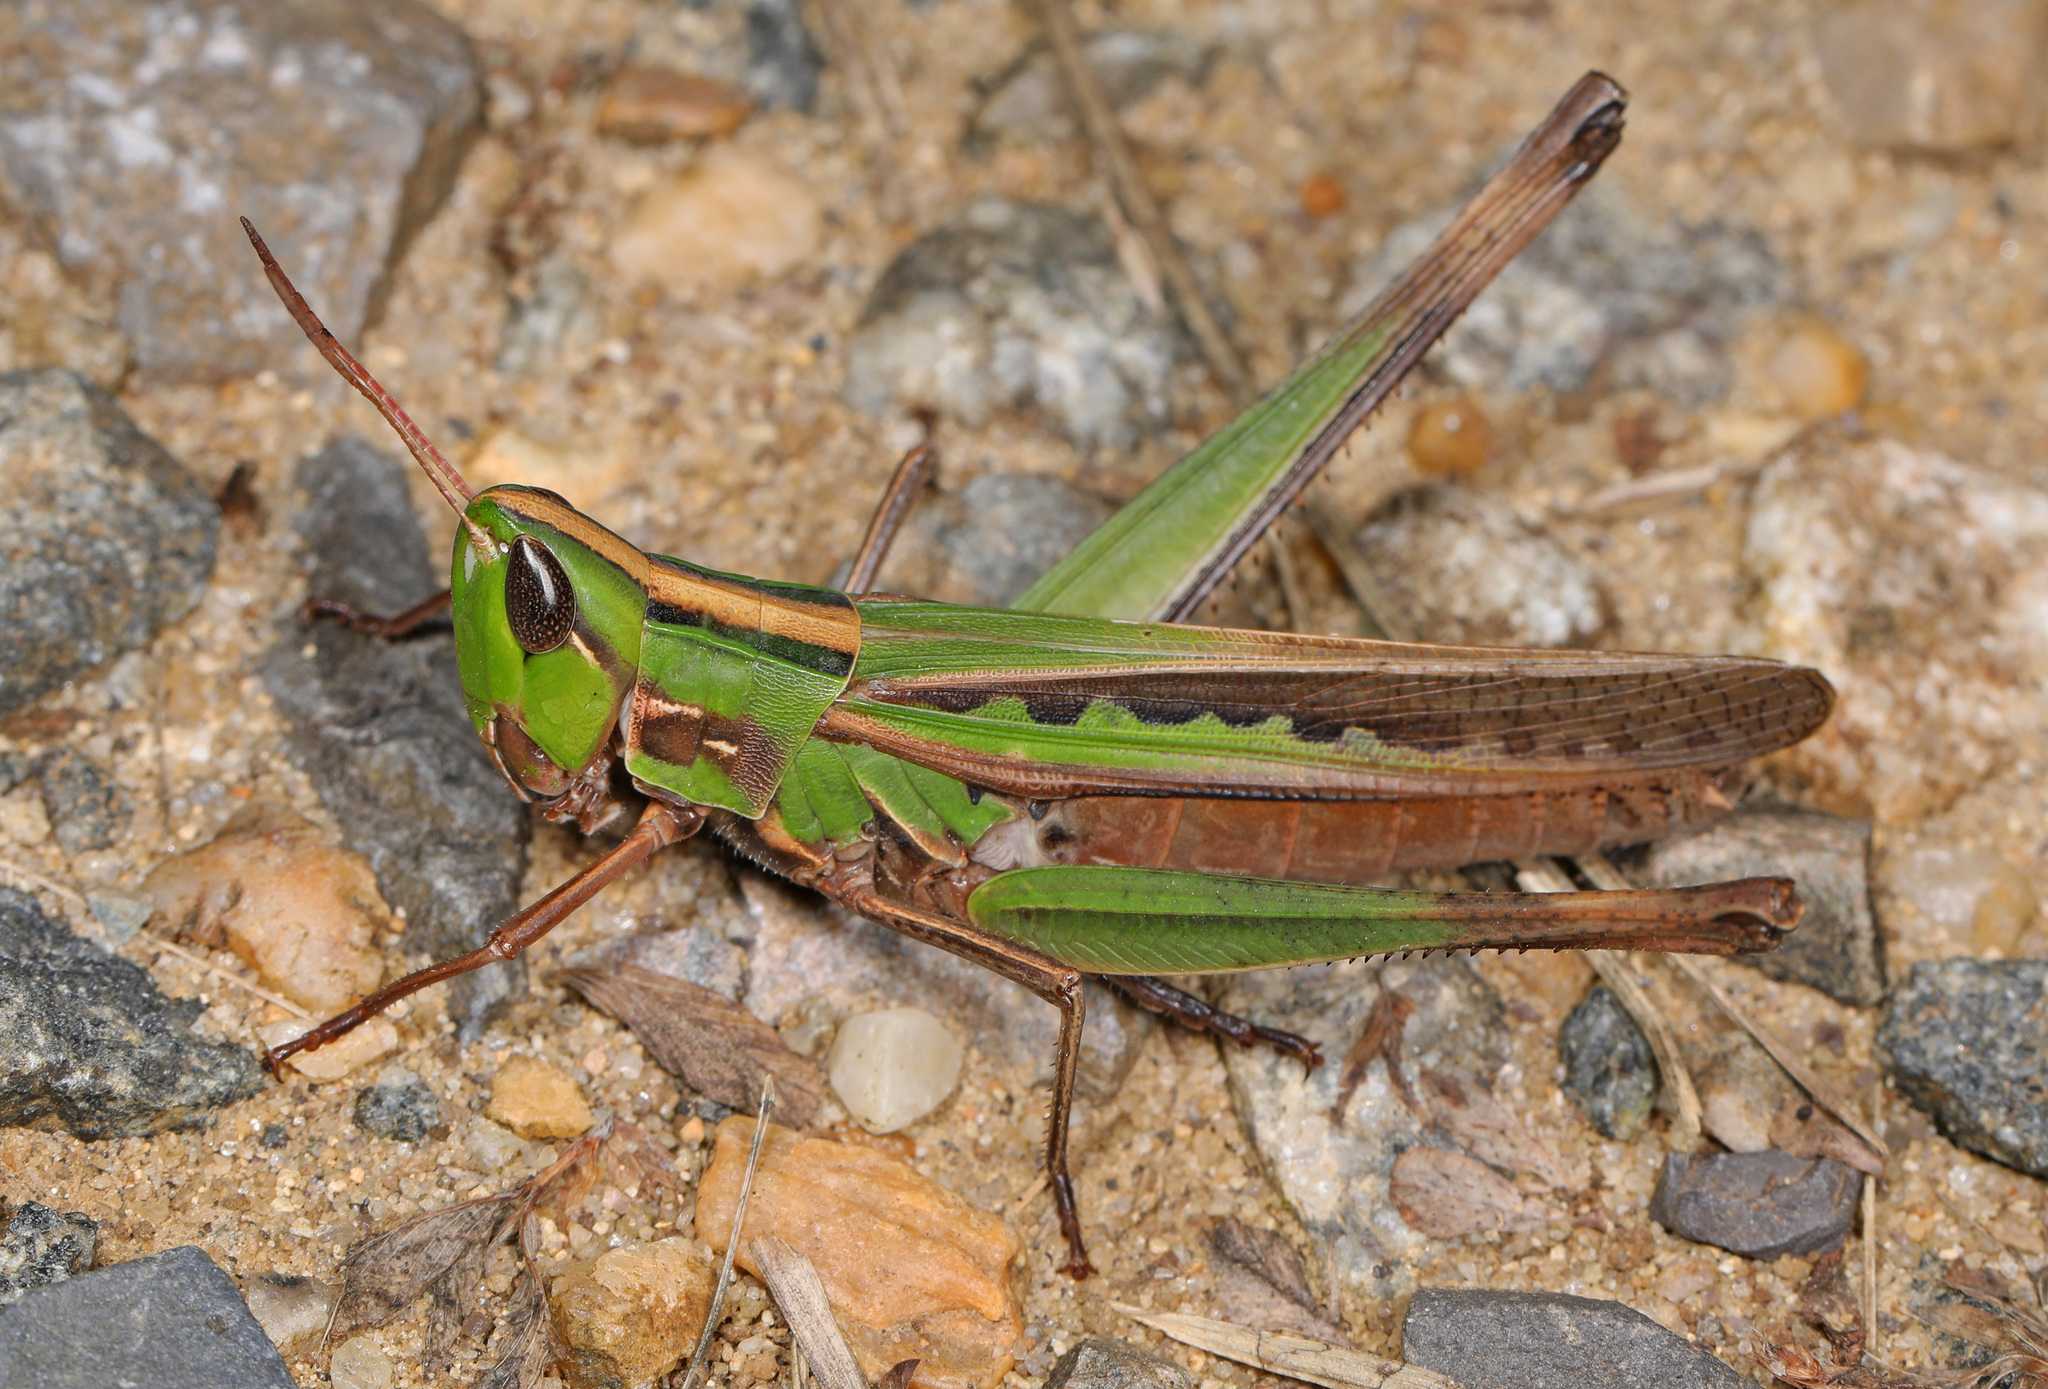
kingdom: Animalia
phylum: Arthropoda
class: Insecta
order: Orthoptera
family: Acrididae
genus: Syrbula
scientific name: Syrbula admirabilis
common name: Handsome grasshopper
